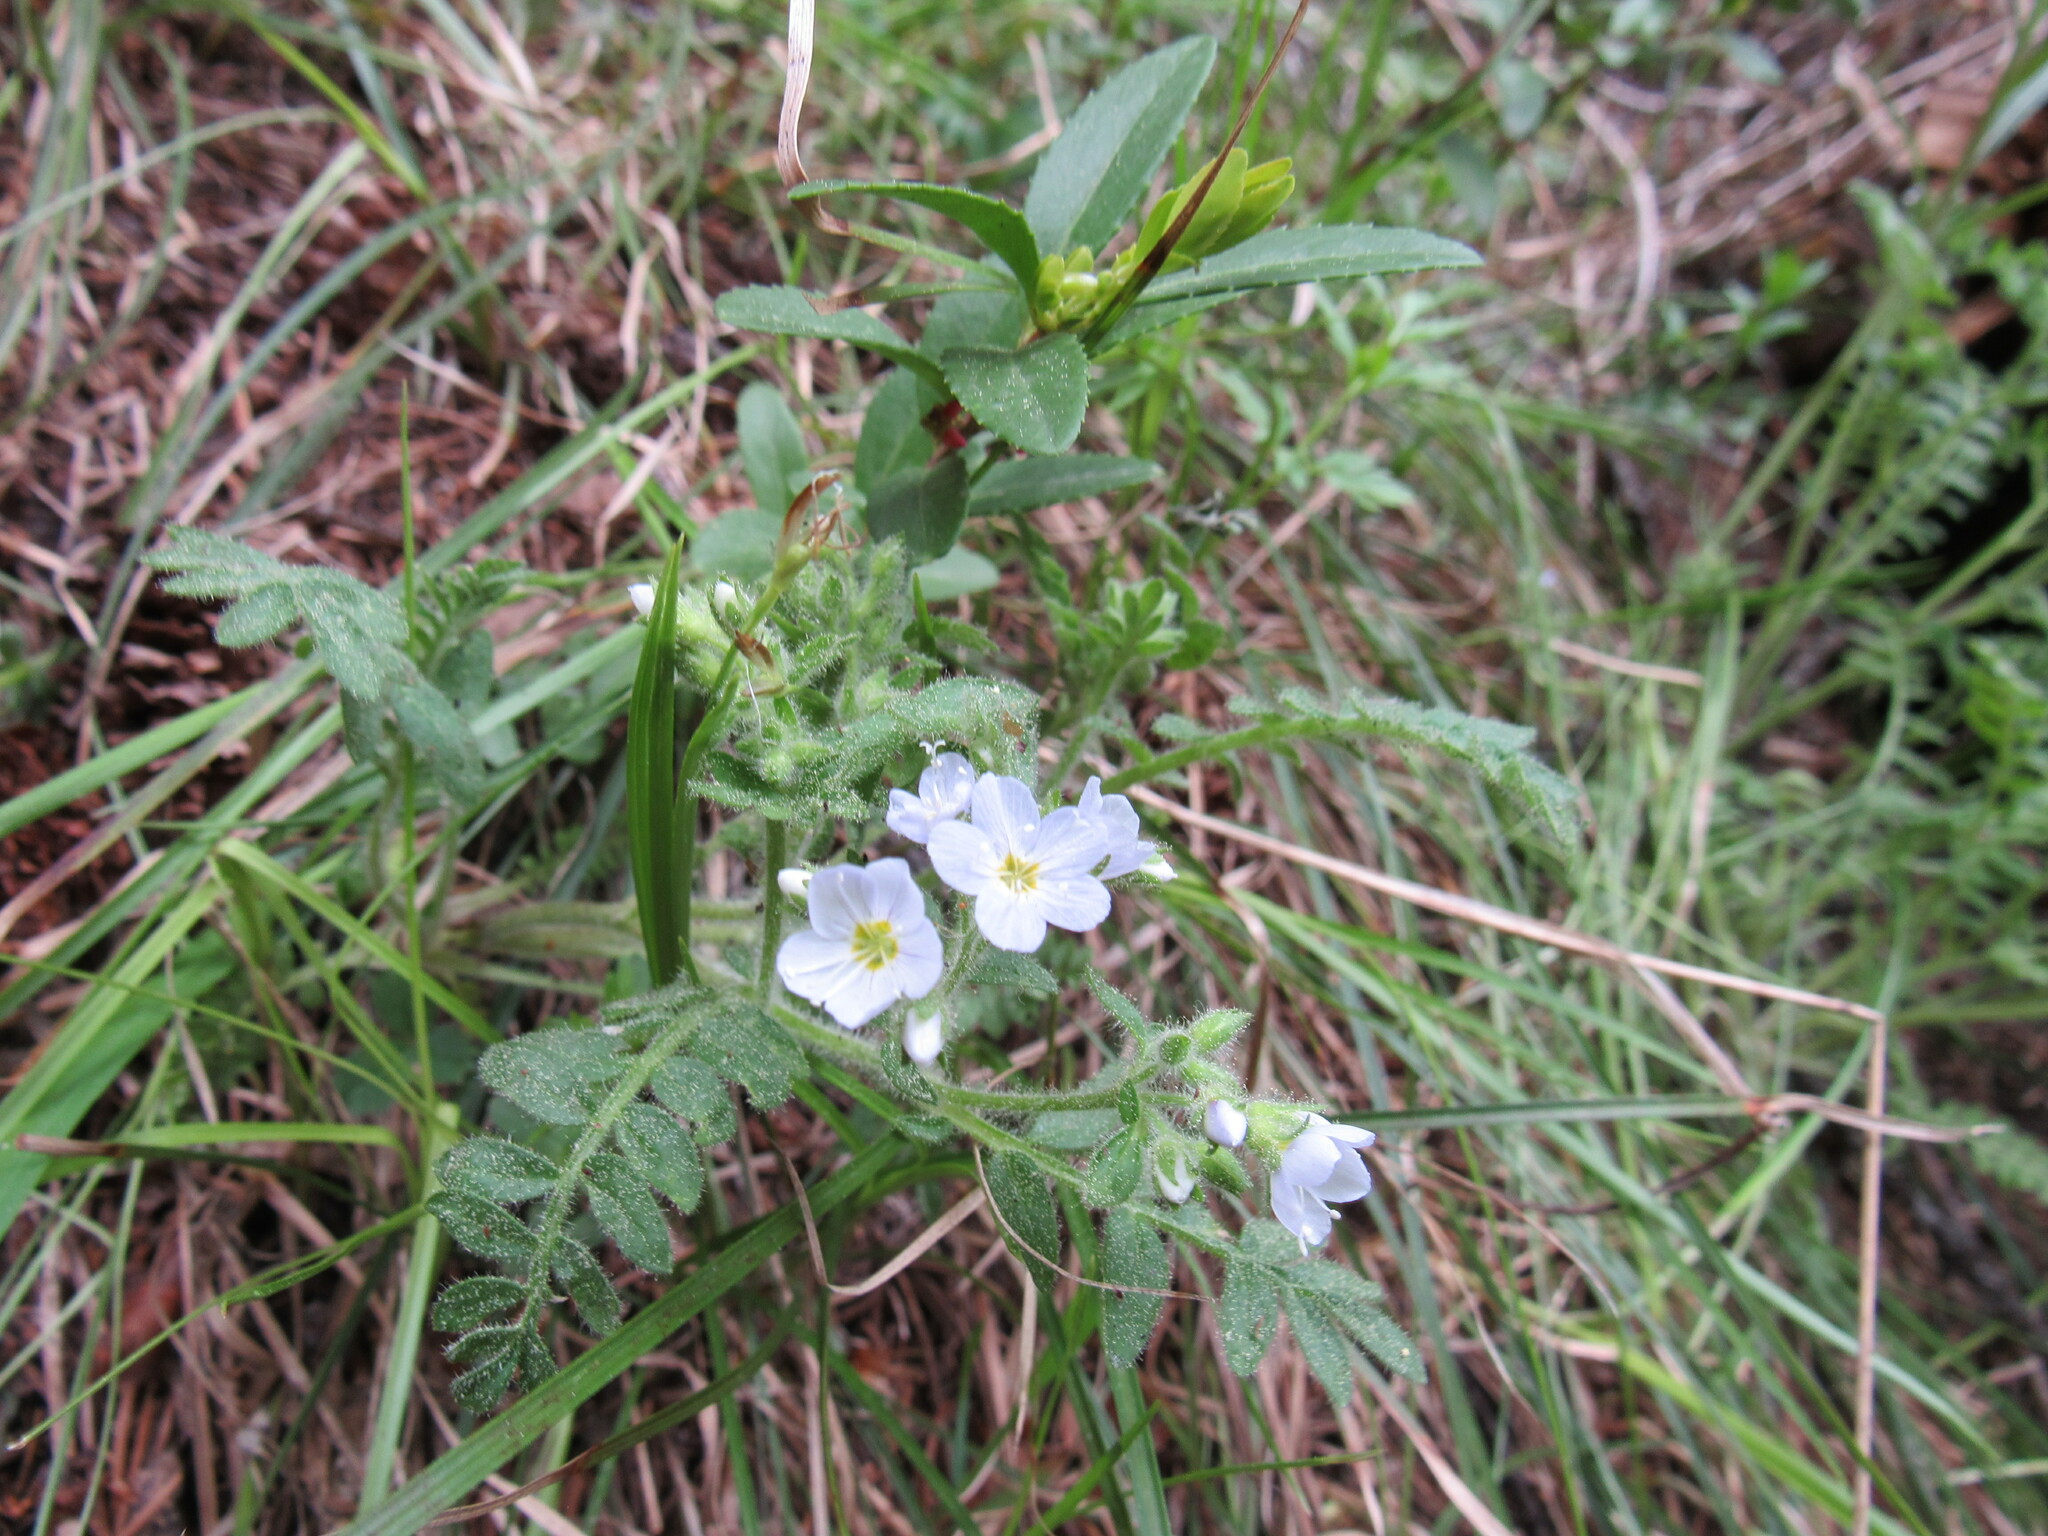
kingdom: Plantae
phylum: Tracheophyta
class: Magnoliopsida
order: Ericales
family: Polemoniaceae
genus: Polemonium
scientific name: Polemonium pulcherrimum
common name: Short jacob's-ladder
